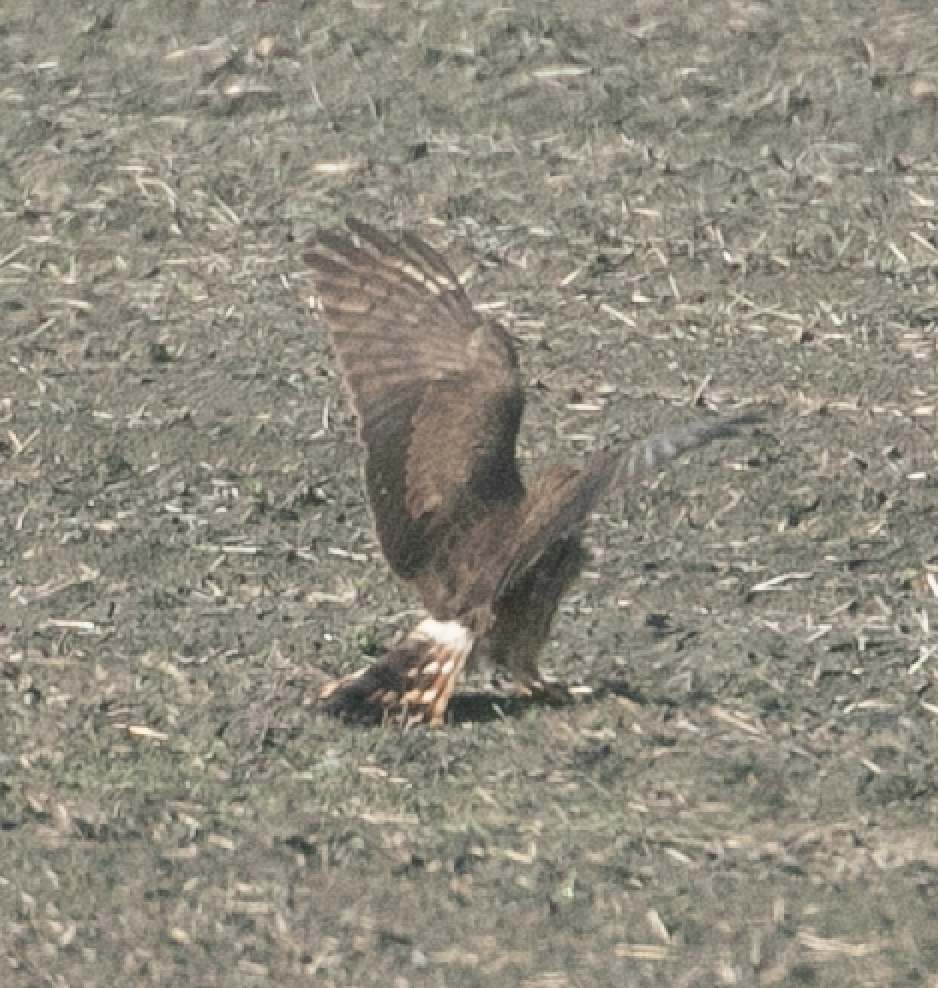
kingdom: Animalia
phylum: Chordata
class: Aves
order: Accipitriformes
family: Accipitridae
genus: Circus
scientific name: Circus pygargus
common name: Montagu's harrier
